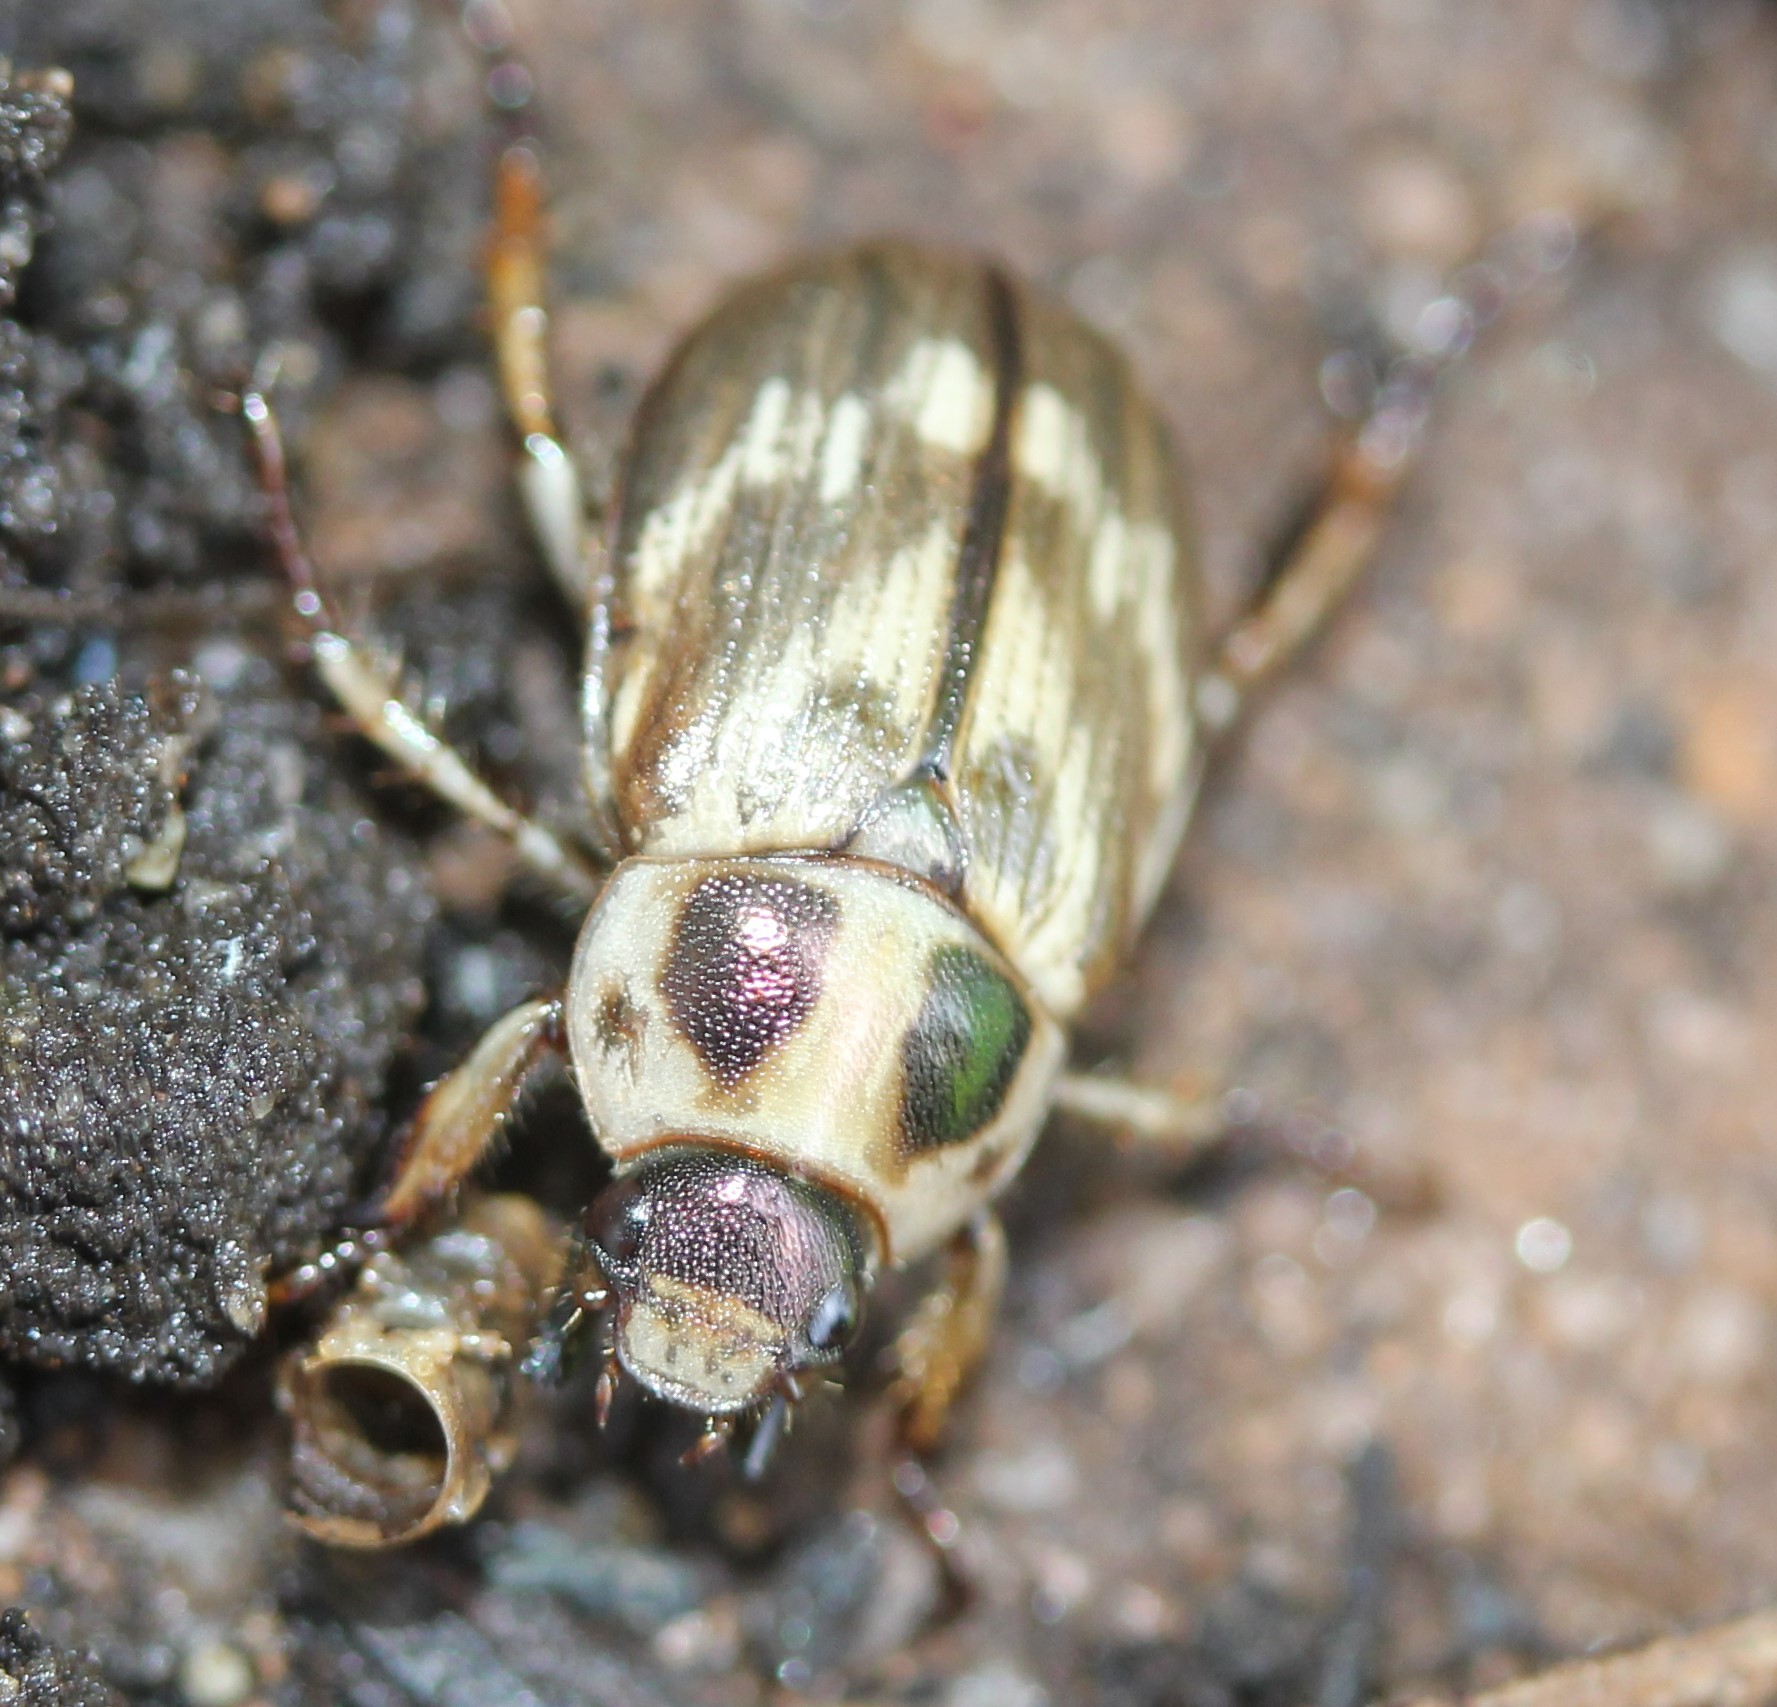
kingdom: Animalia
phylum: Arthropoda
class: Insecta
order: Coleoptera
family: Scarabaeidae
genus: Exomala
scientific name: Exomala orientalis
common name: Oriental beetle
